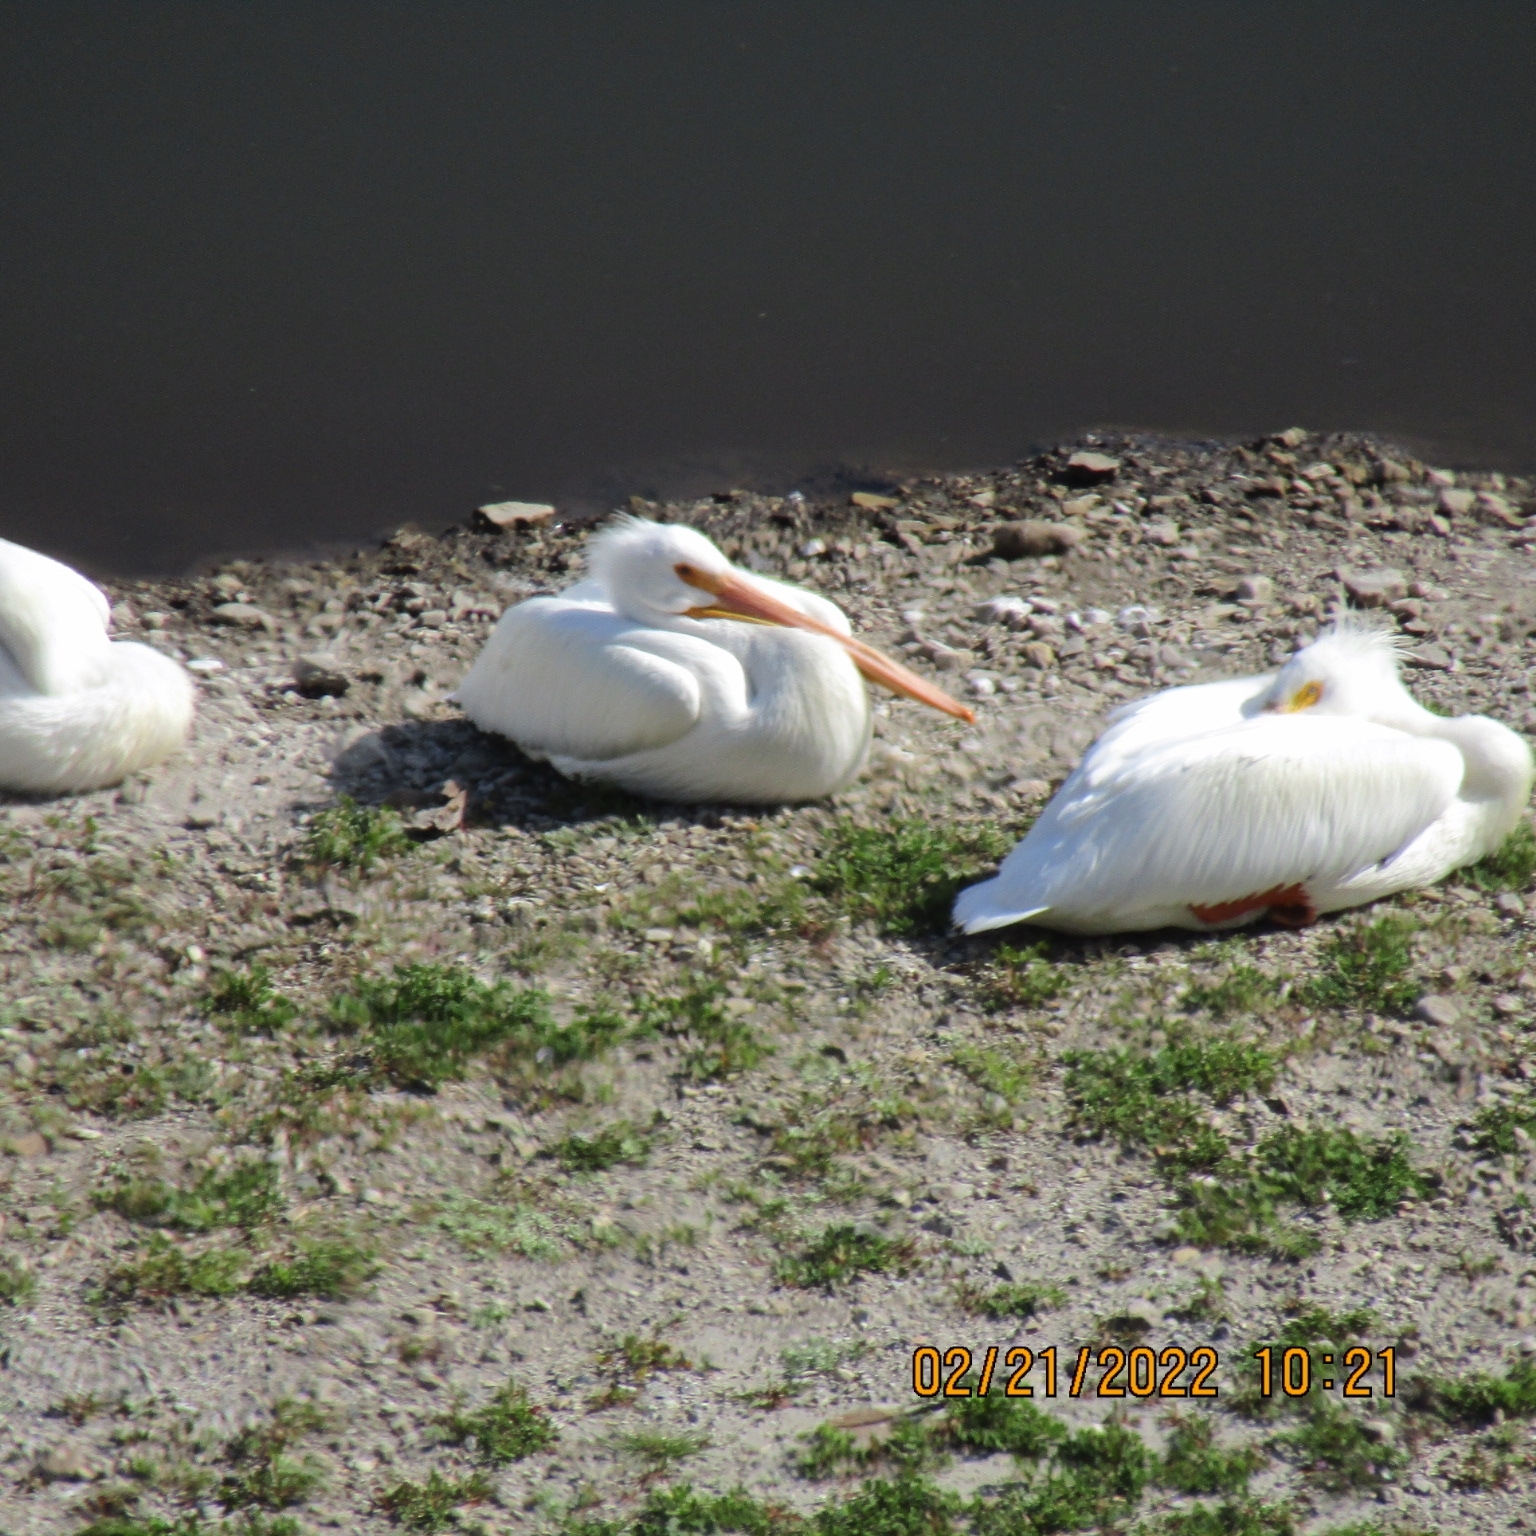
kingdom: Animalia
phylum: Chordata
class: Aves
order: Pelecaniformes
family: Pelecanidae
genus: Pelecanus
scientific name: Pelecanus erythrorhynchos
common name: American white pelican
